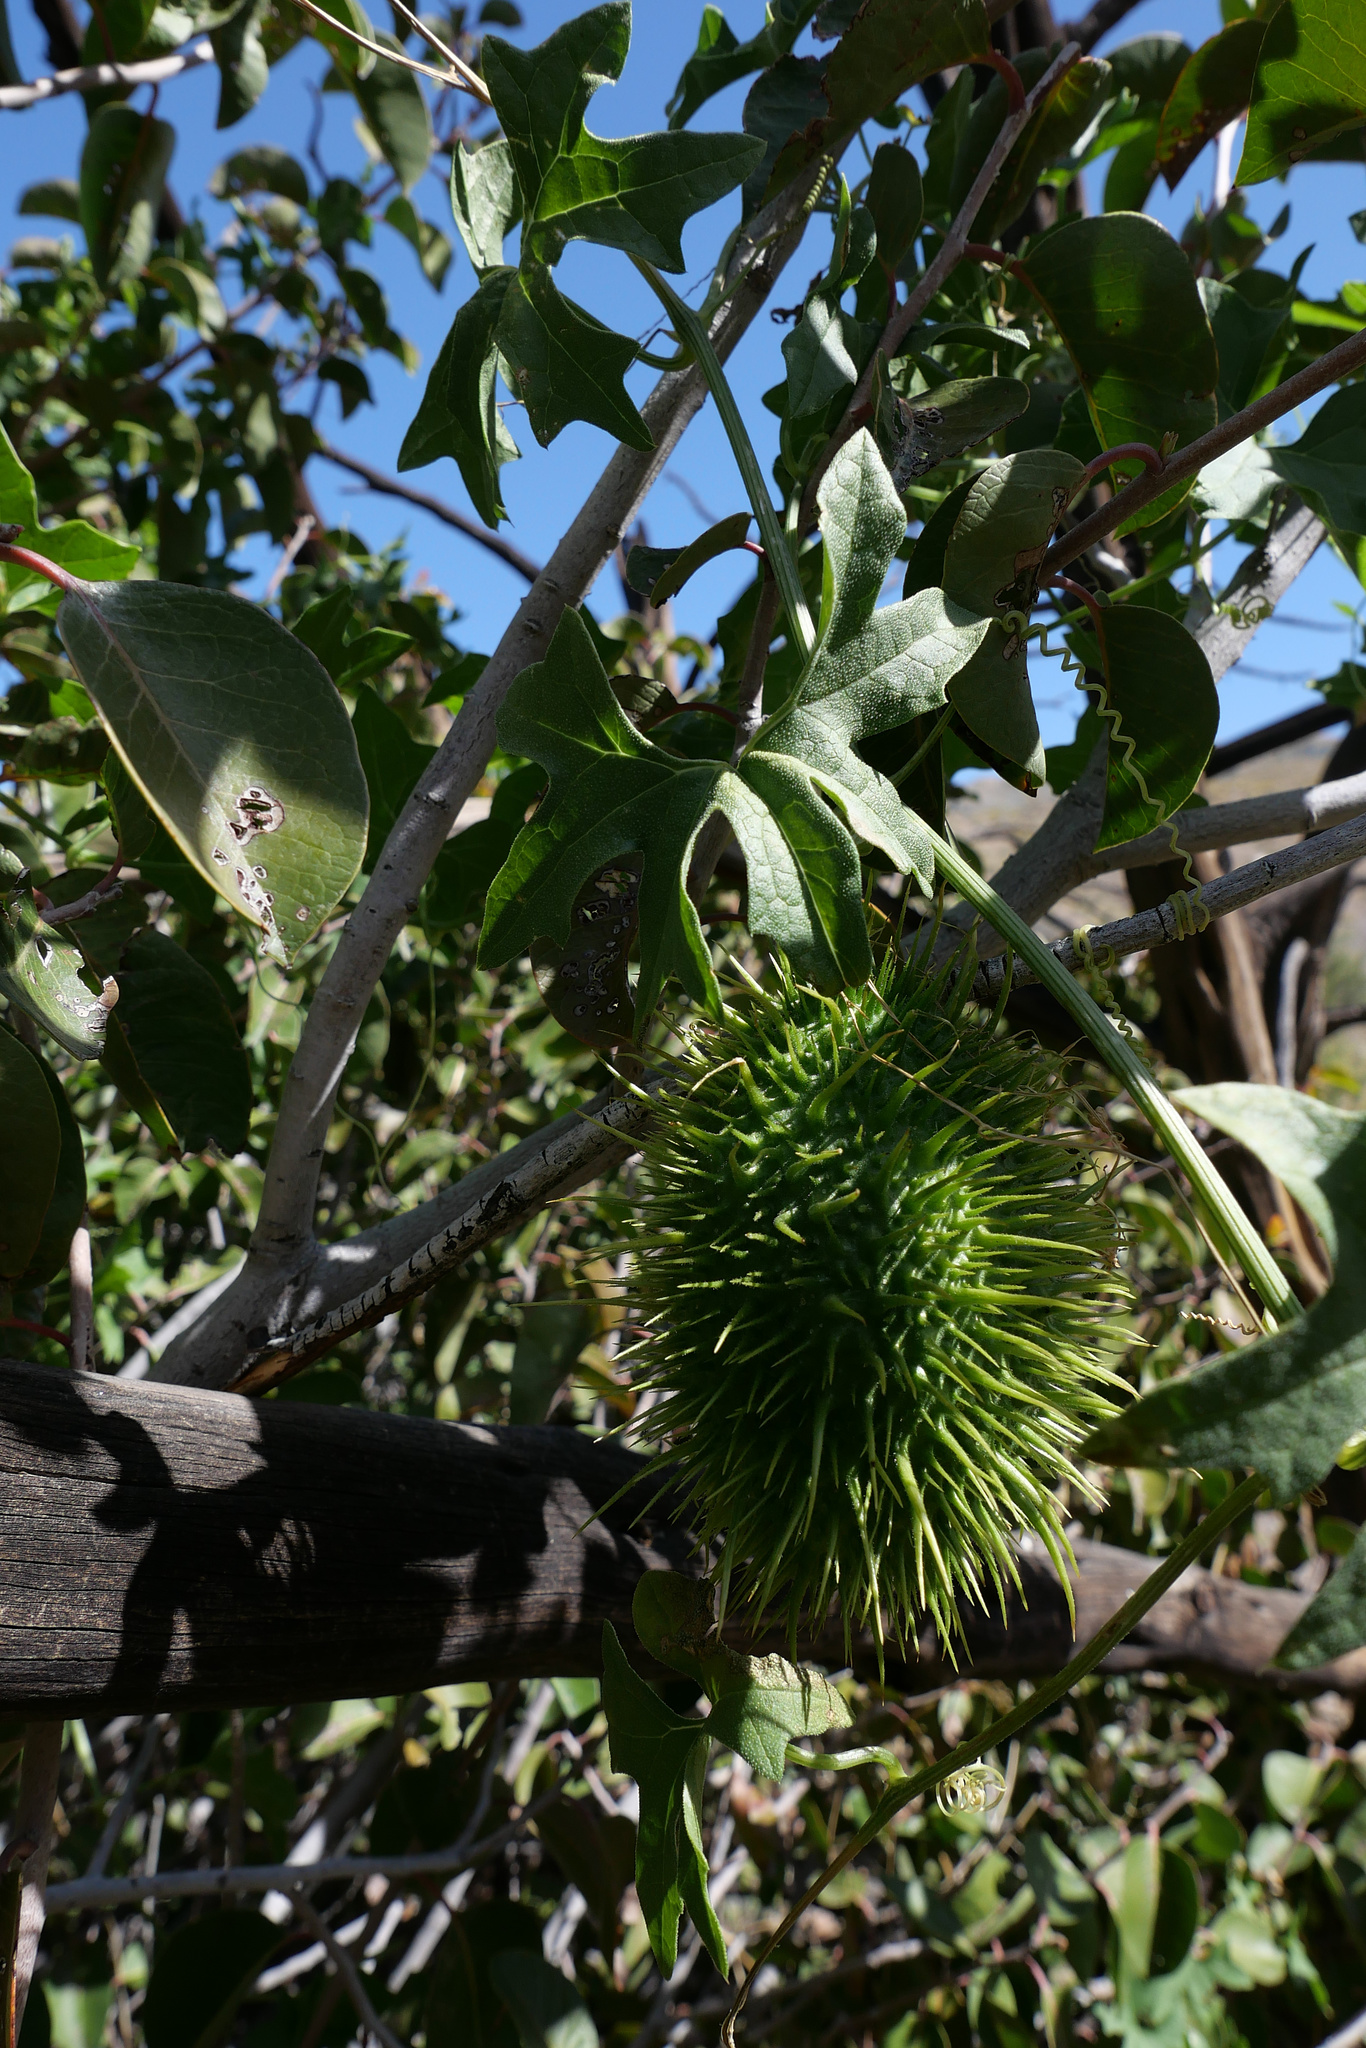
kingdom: Plantae
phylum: Tracheophyta
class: Magnoliopsida
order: Cucurbitales
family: Cucurbitaceae
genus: Marah
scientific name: Marah macrocarpa
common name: Cucamonga manroot
